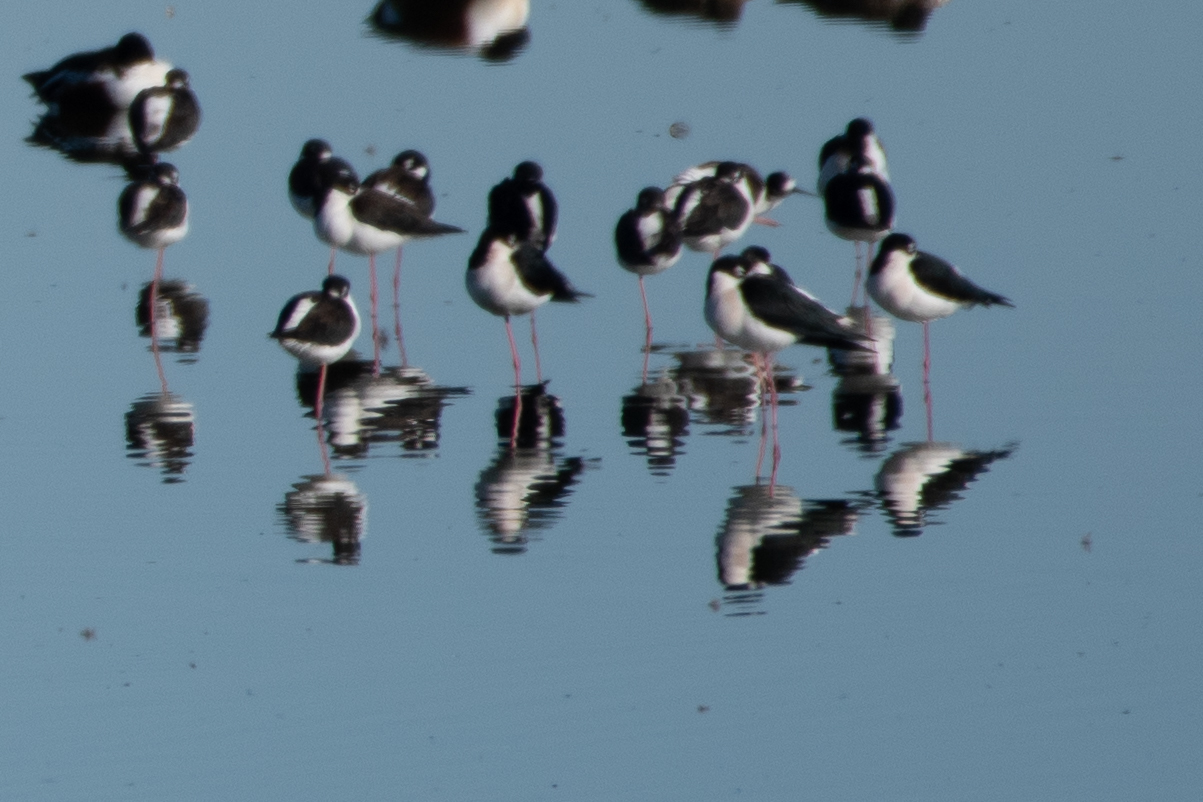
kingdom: Animalia
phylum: Chordata
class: Aves
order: Charadriiformes
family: Recurvirostridae
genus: Himantopus
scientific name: Himantopus mexicanus
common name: Black-necked stilt
